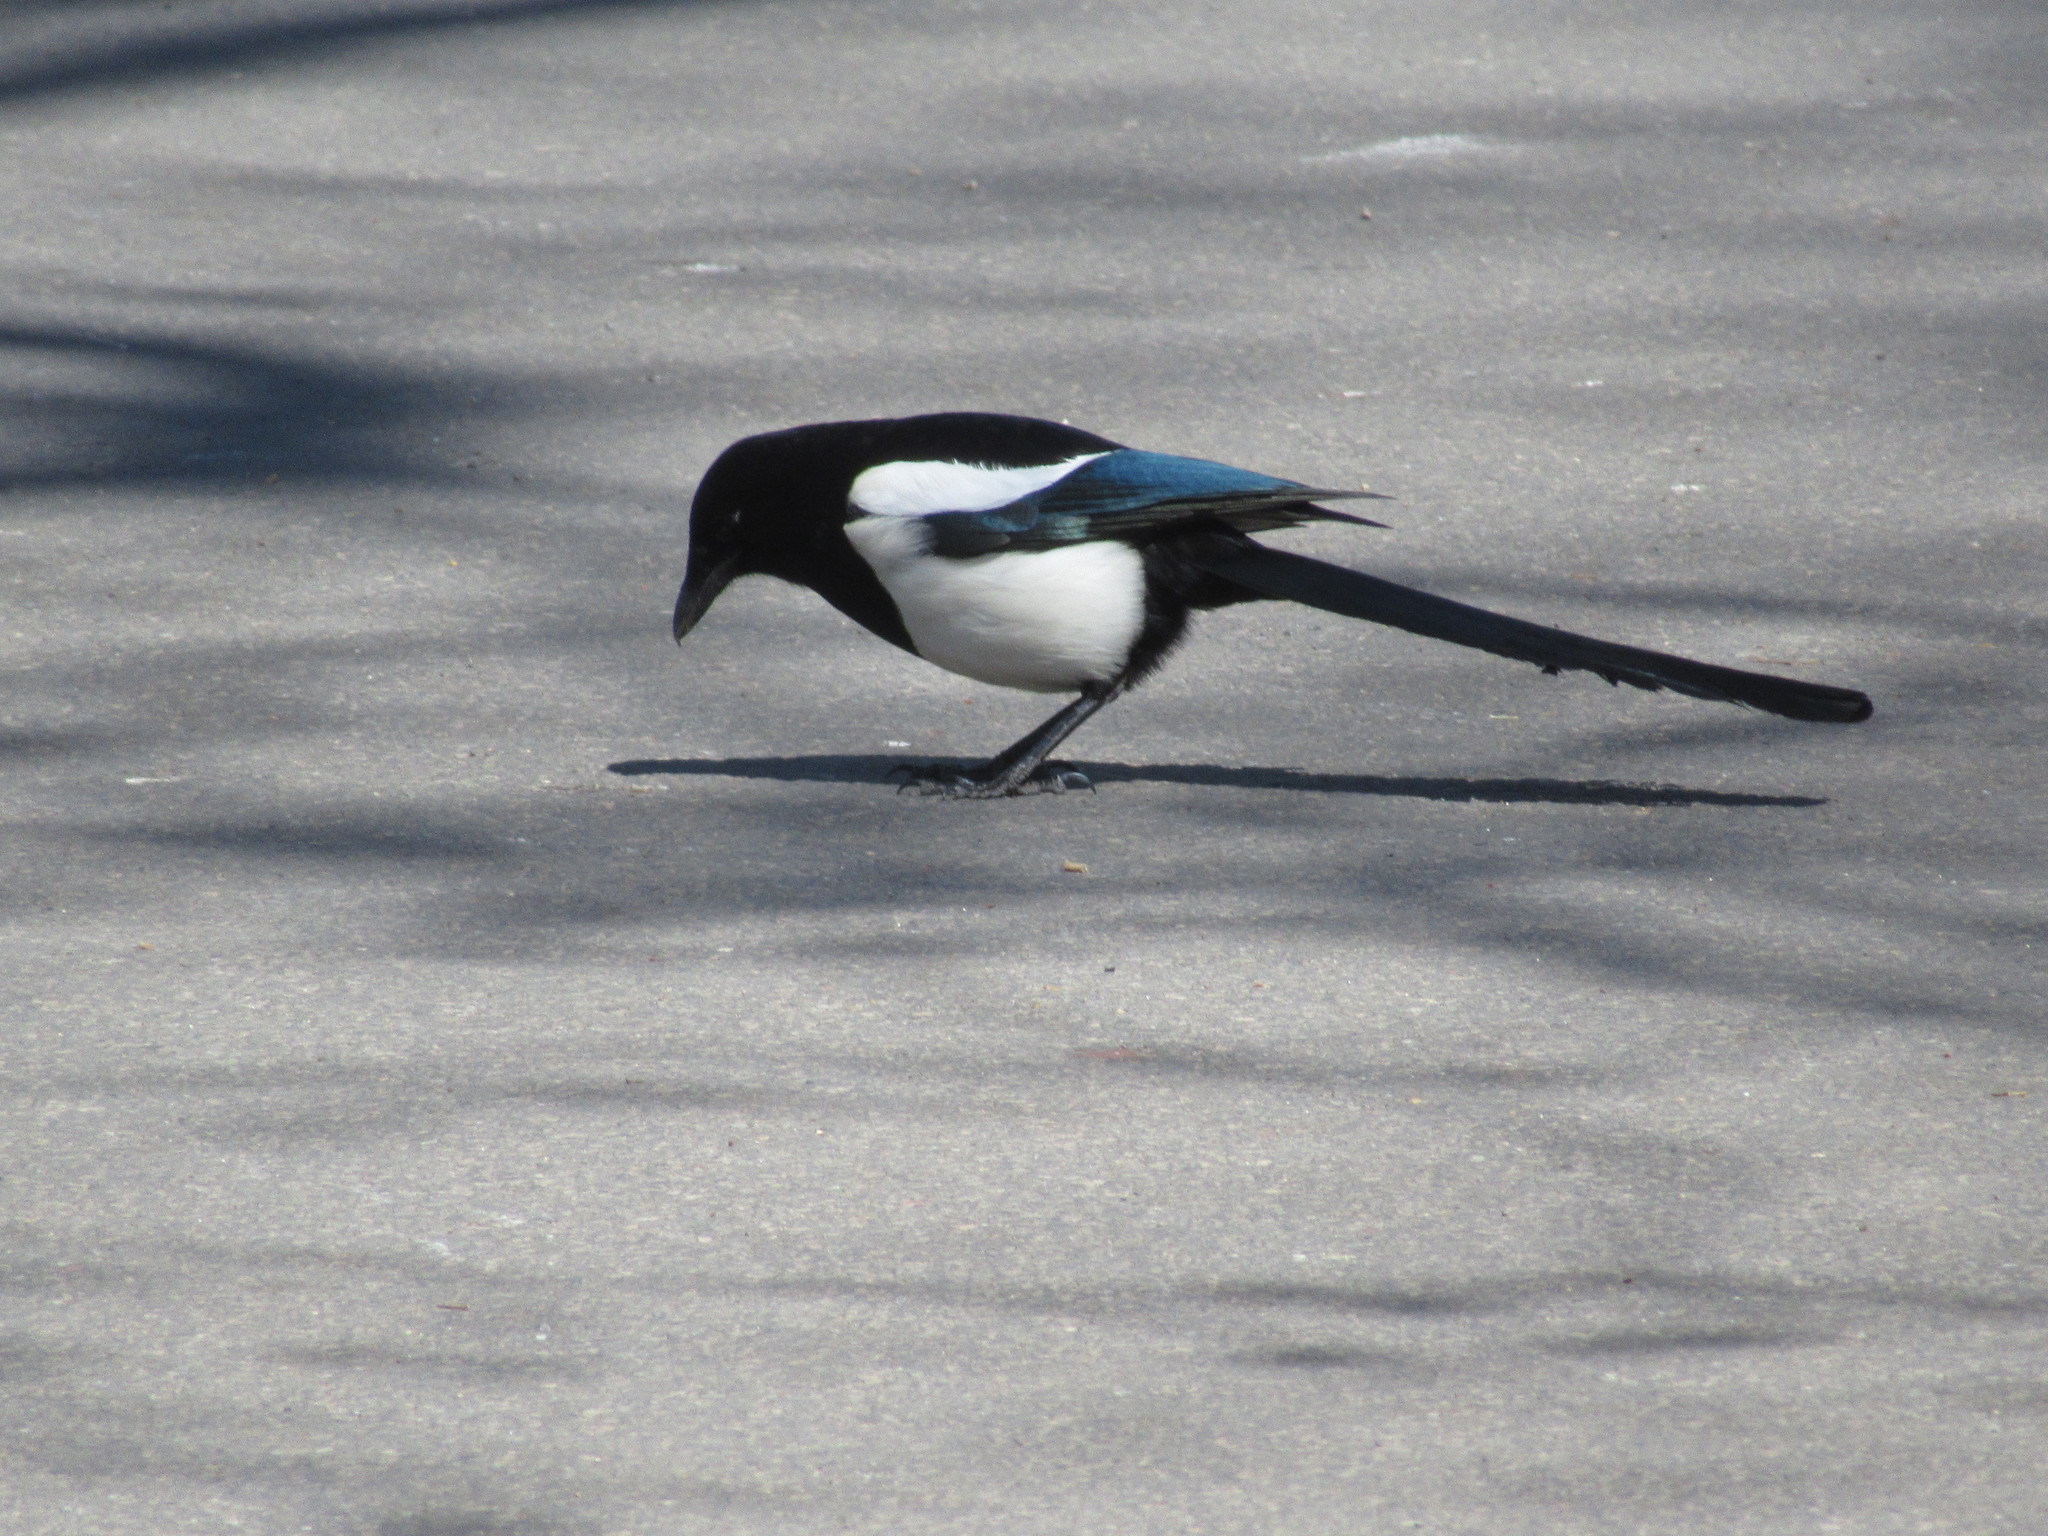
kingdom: Animalia
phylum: Chordata
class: Aves
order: Passeriformes
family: Corvidae
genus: Pica
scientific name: Pica pica
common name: Eurasian magpie
